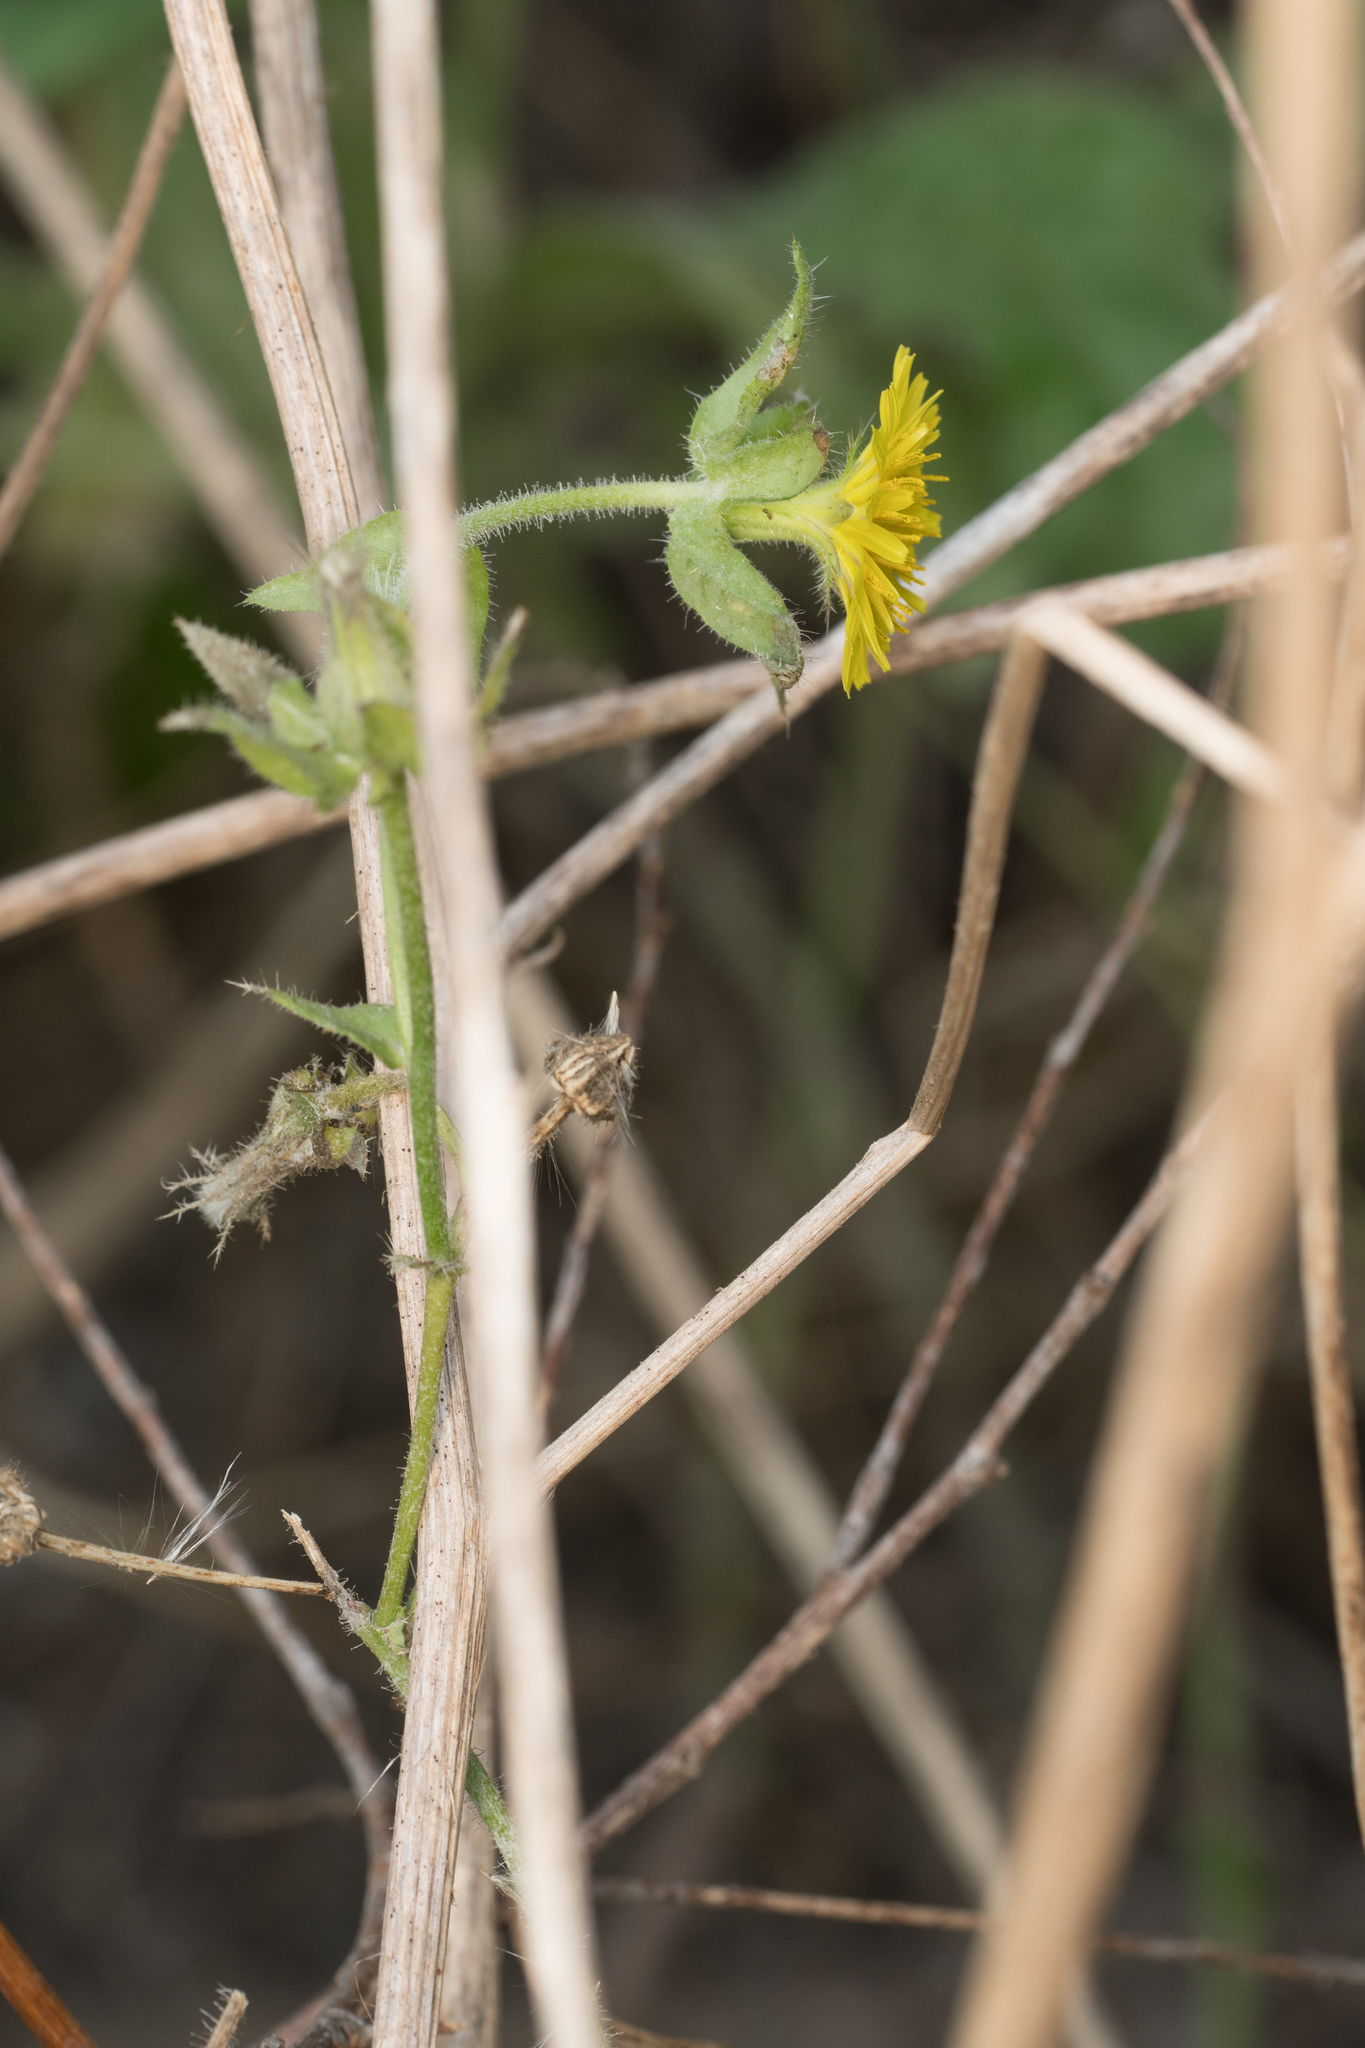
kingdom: Plantae
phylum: Tracheophyta
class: Magnoliopsida
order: Asterales
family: Asteraceae
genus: Helminthotheca
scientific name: Helminthotheca echioides
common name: Ox-tongue
